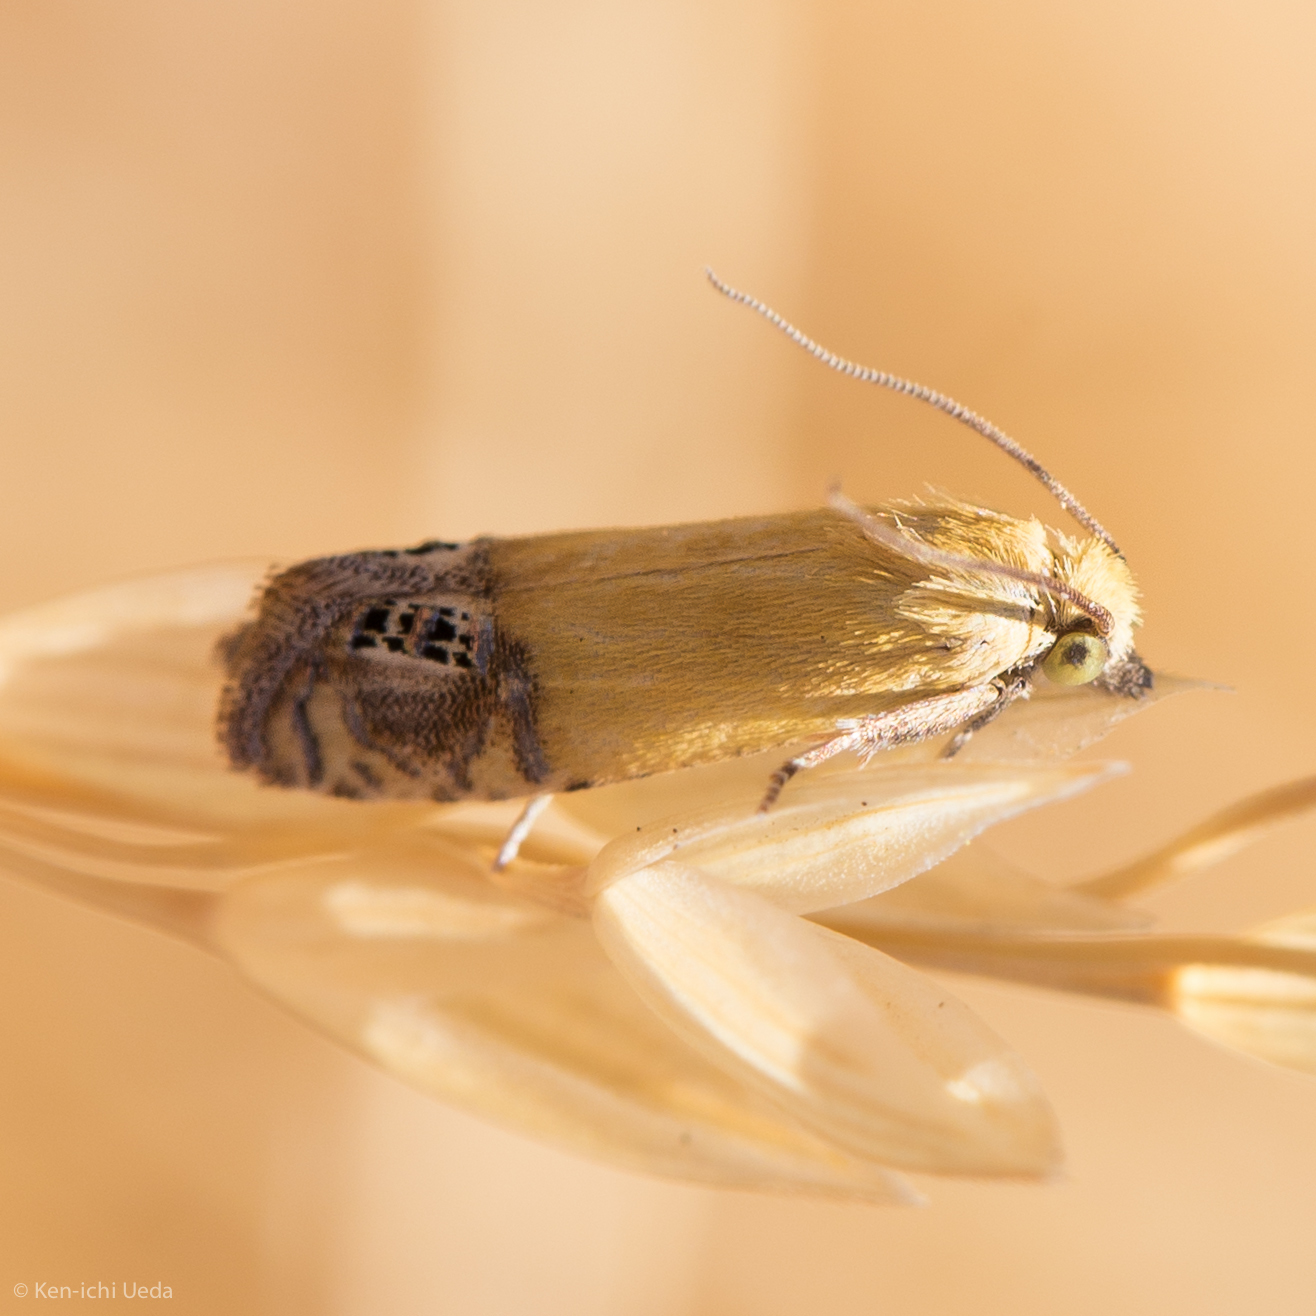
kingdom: Animalia
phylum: Arthropoda
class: Insecta
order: Lepidoptera
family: Tortricidae
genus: Eucosma
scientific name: Eucosma amphorana
